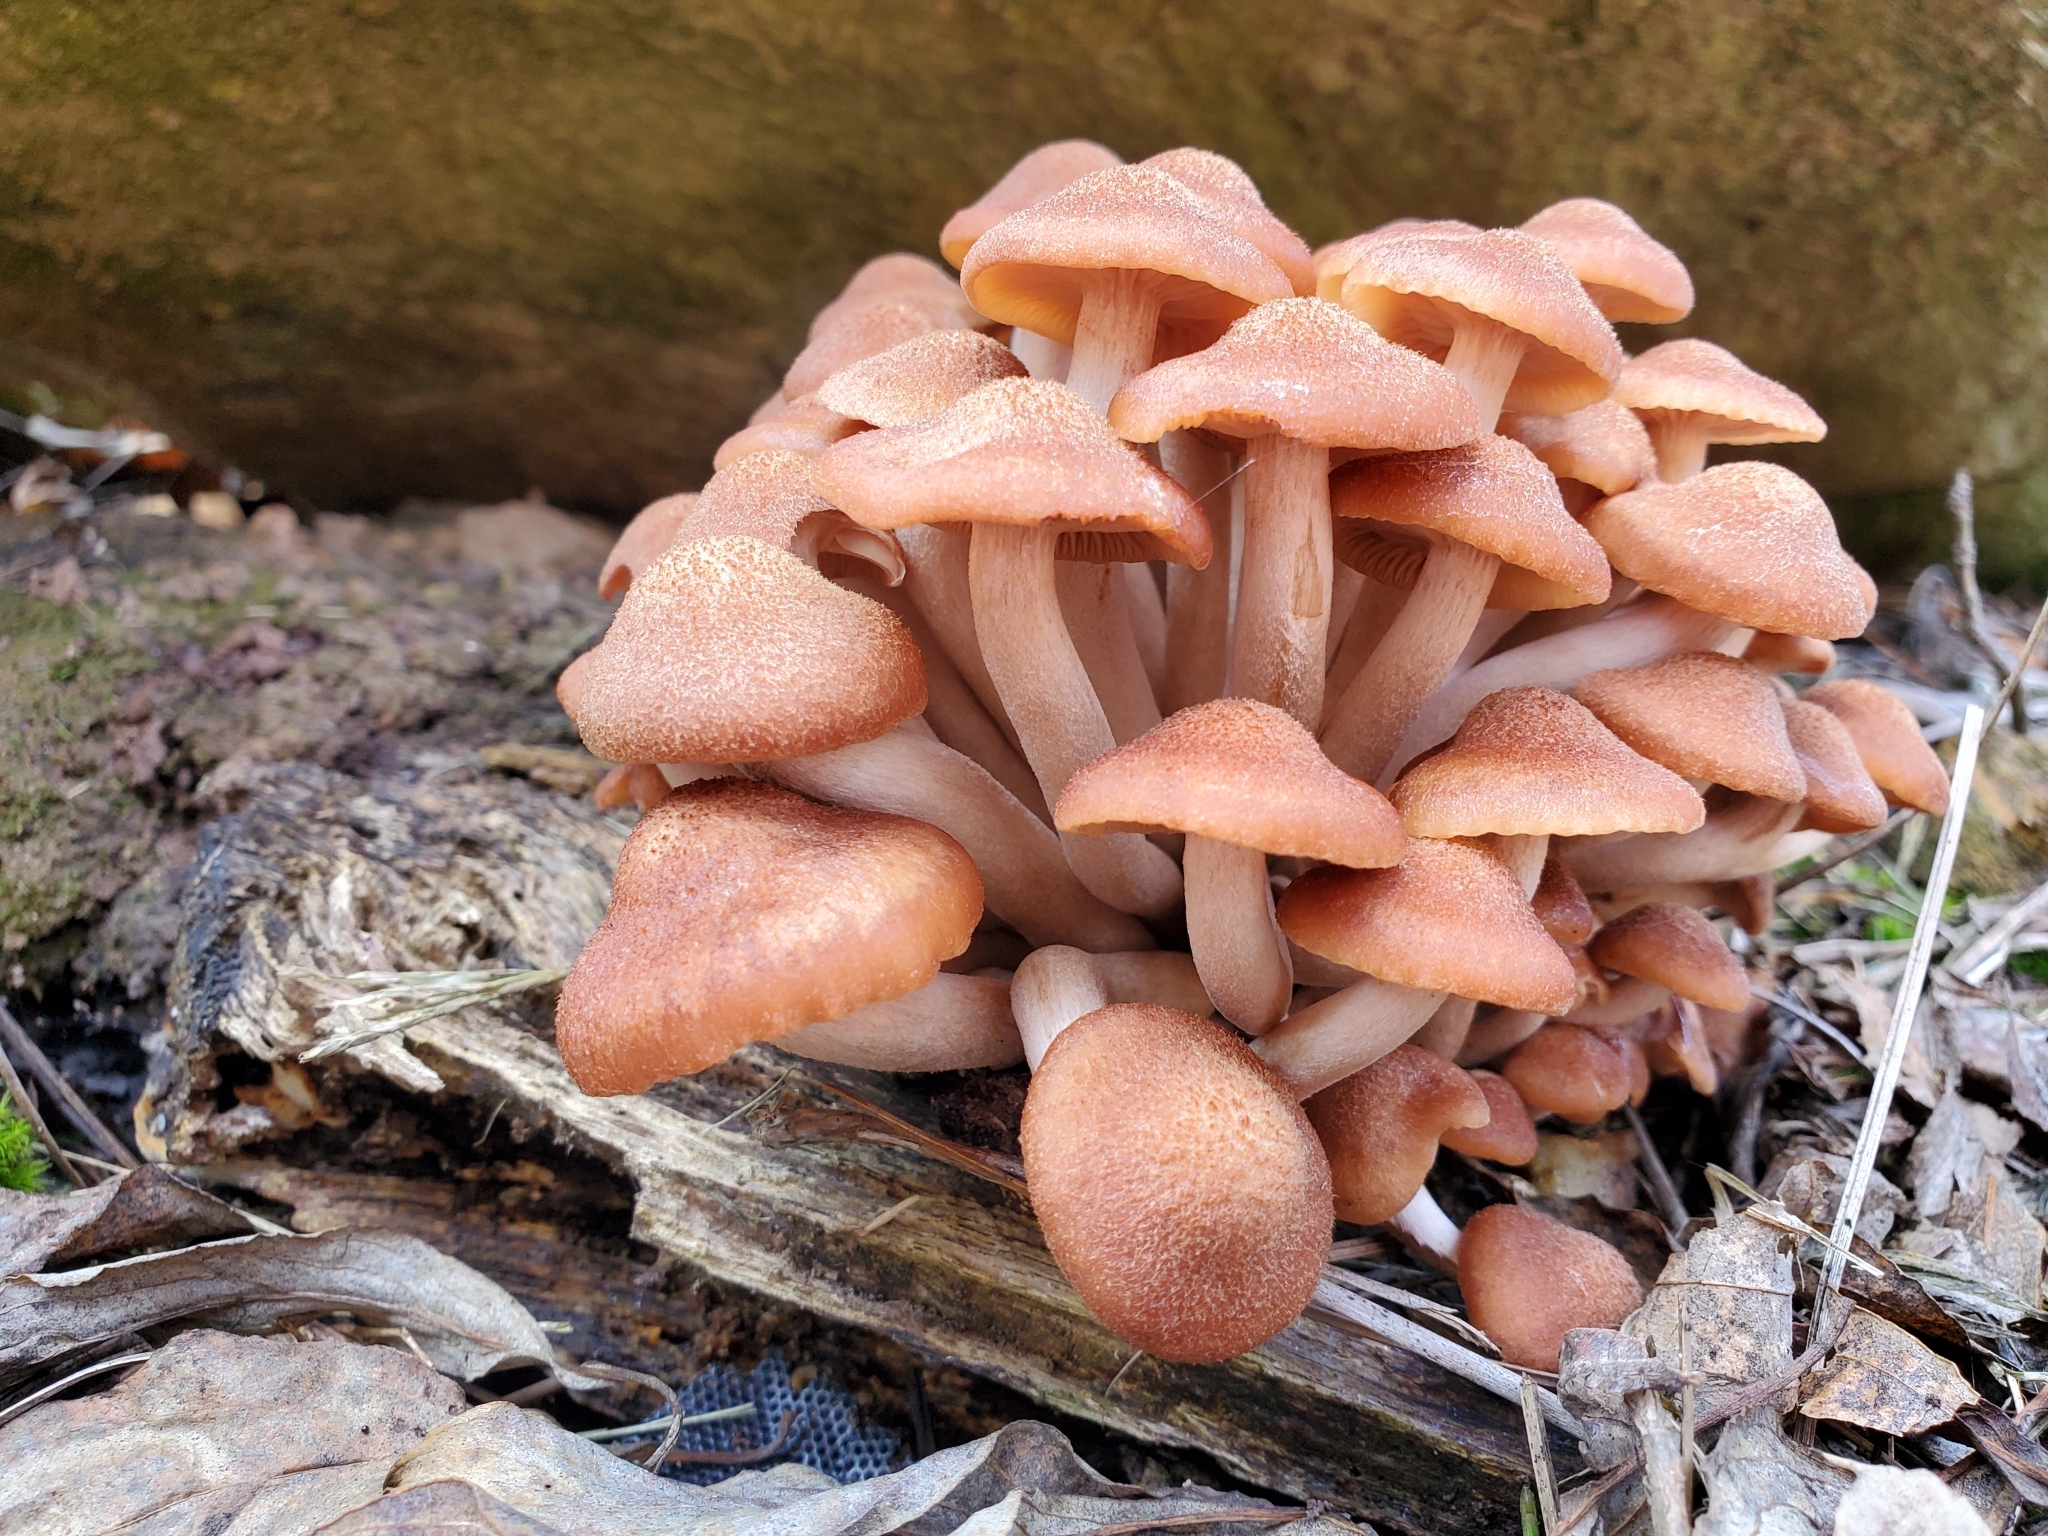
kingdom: Fungi
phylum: Basidiomycota
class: Agaricomycetes
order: Agaricales
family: Physalacriaceae
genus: Desarmillaria
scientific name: Desarmillaria caespitosa
